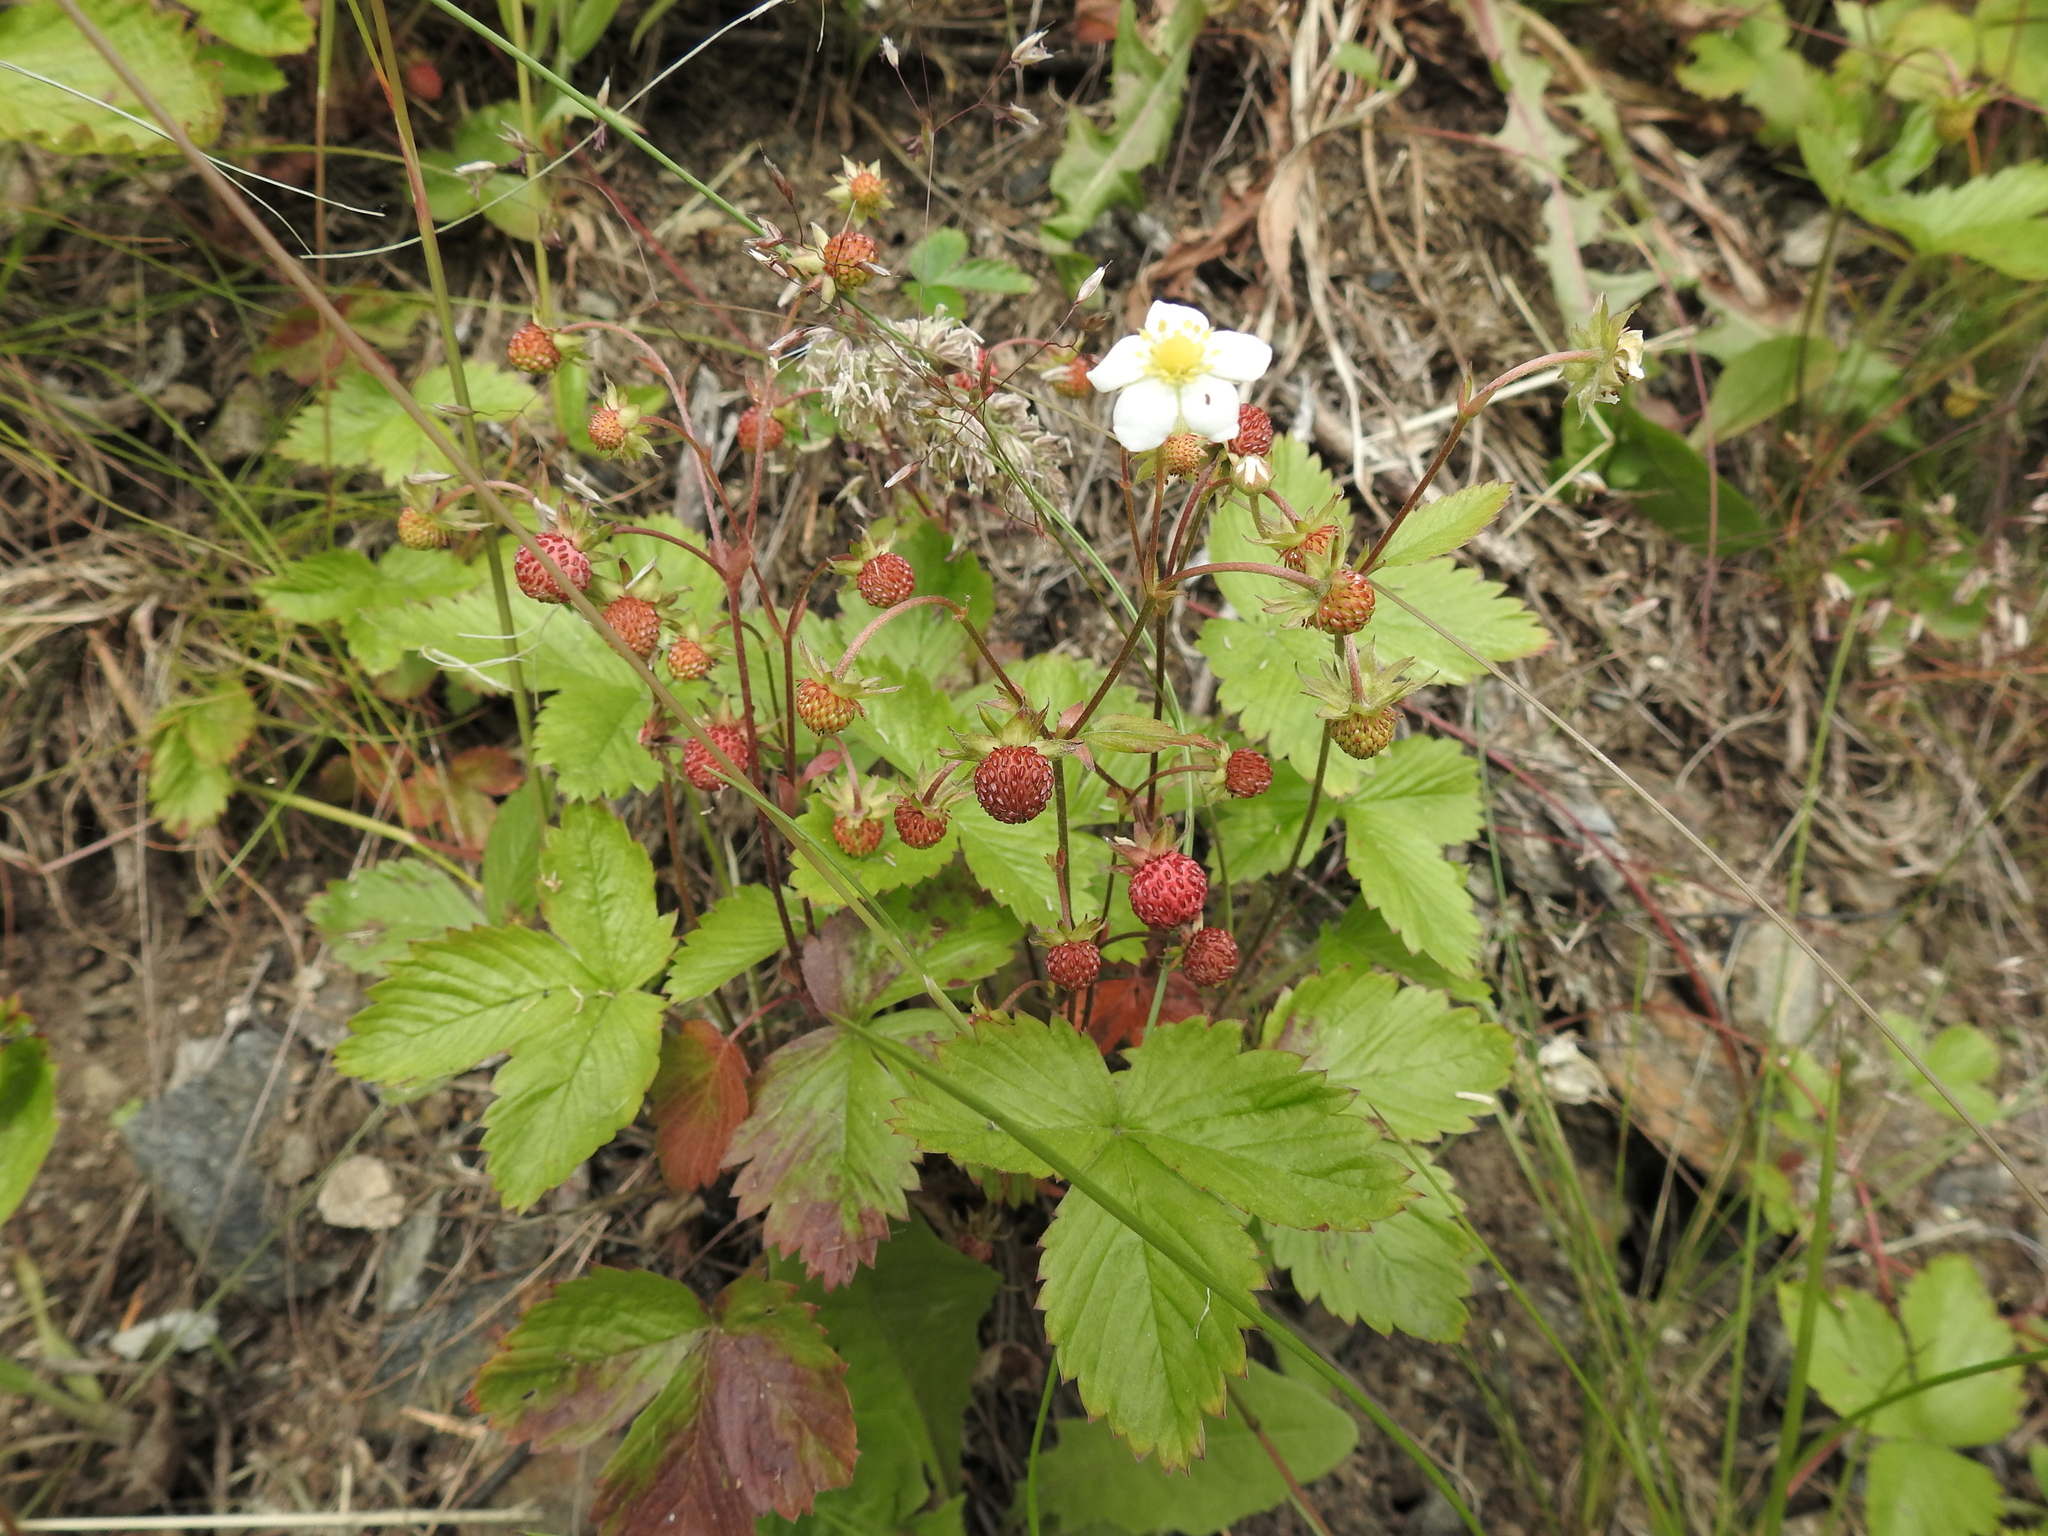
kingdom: Plantae
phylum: Tracheophyta
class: Magnoliopsida
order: Rosales
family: Rosaceae
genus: Fragaria
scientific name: Fragaria vesca
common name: Wild strawberry
